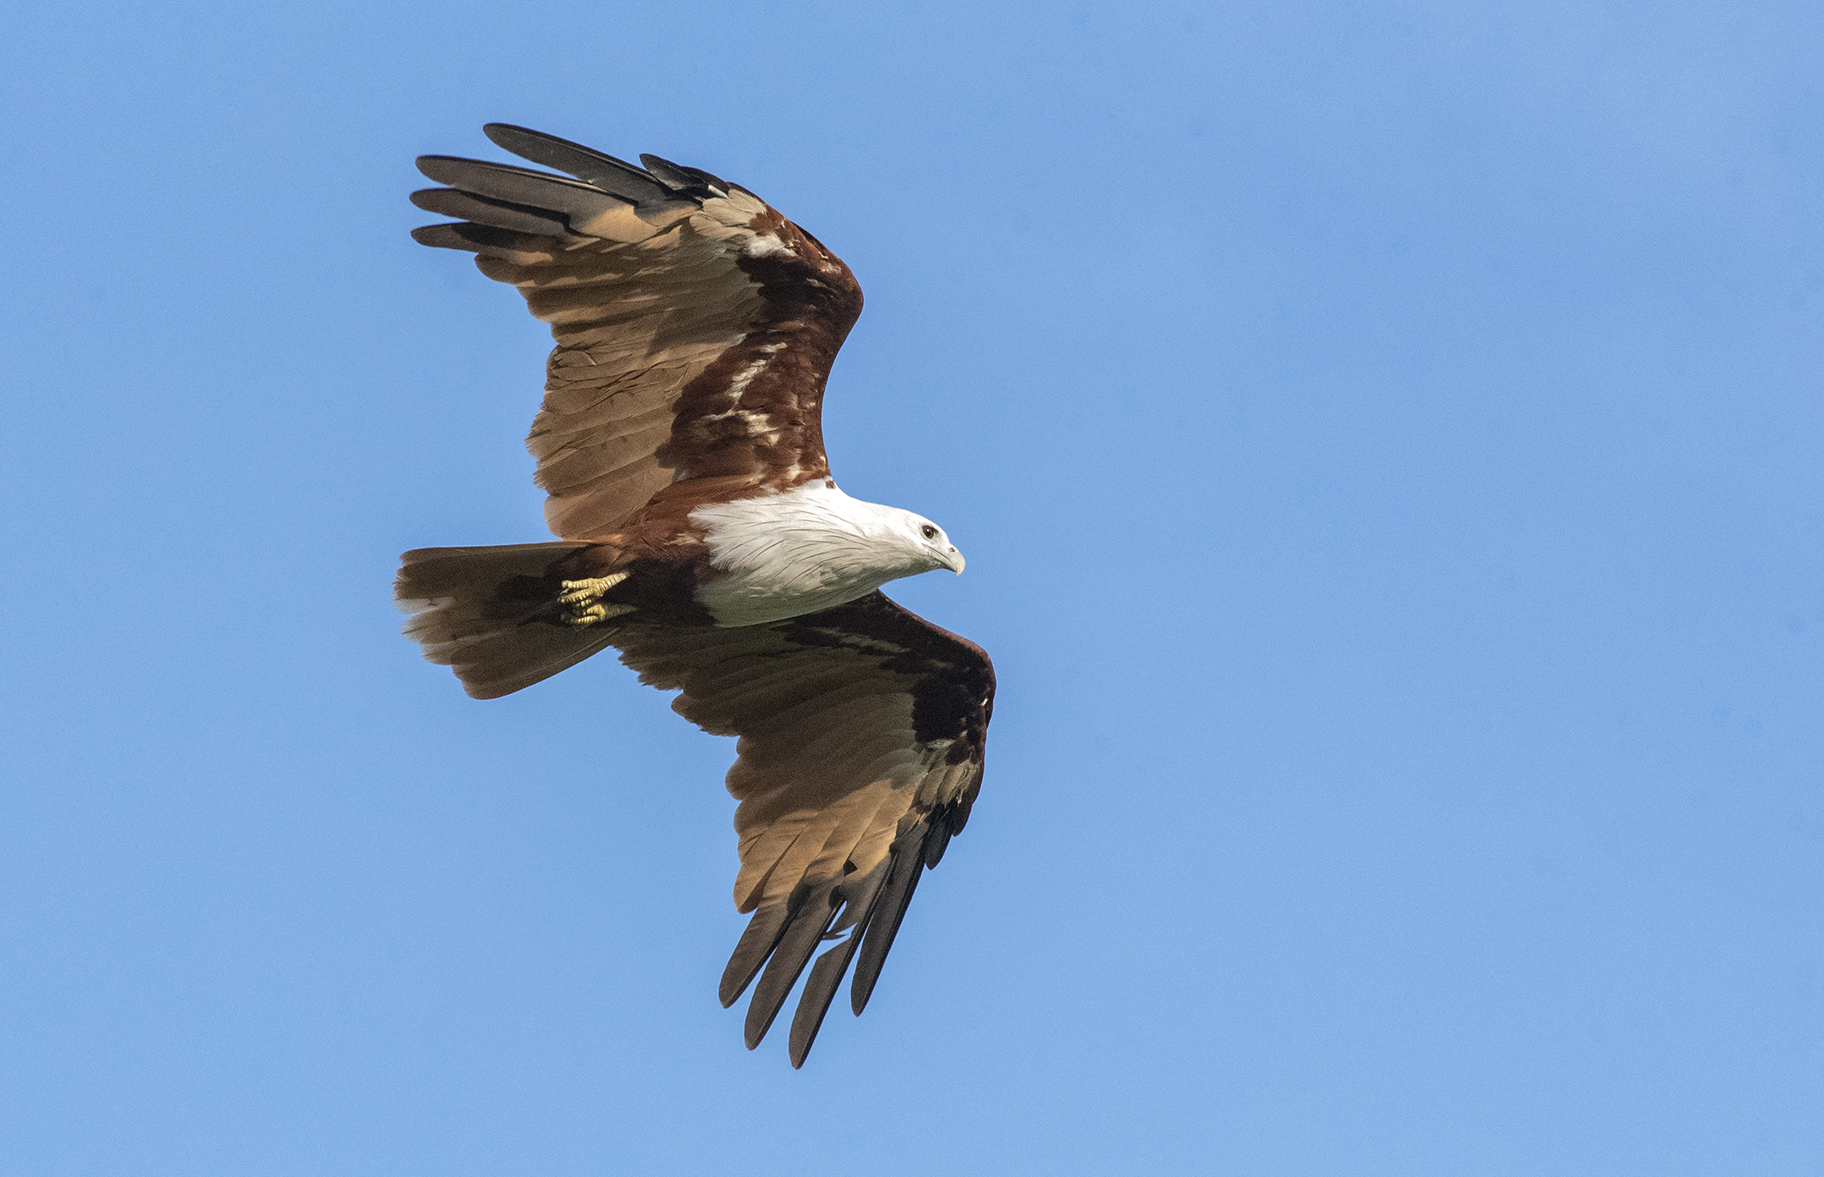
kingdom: Animalia
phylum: Chordata
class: Aves
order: Accipitriformes
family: Accipitridae
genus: Haliastur
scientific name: Haliastur indus
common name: Brahminy kite
